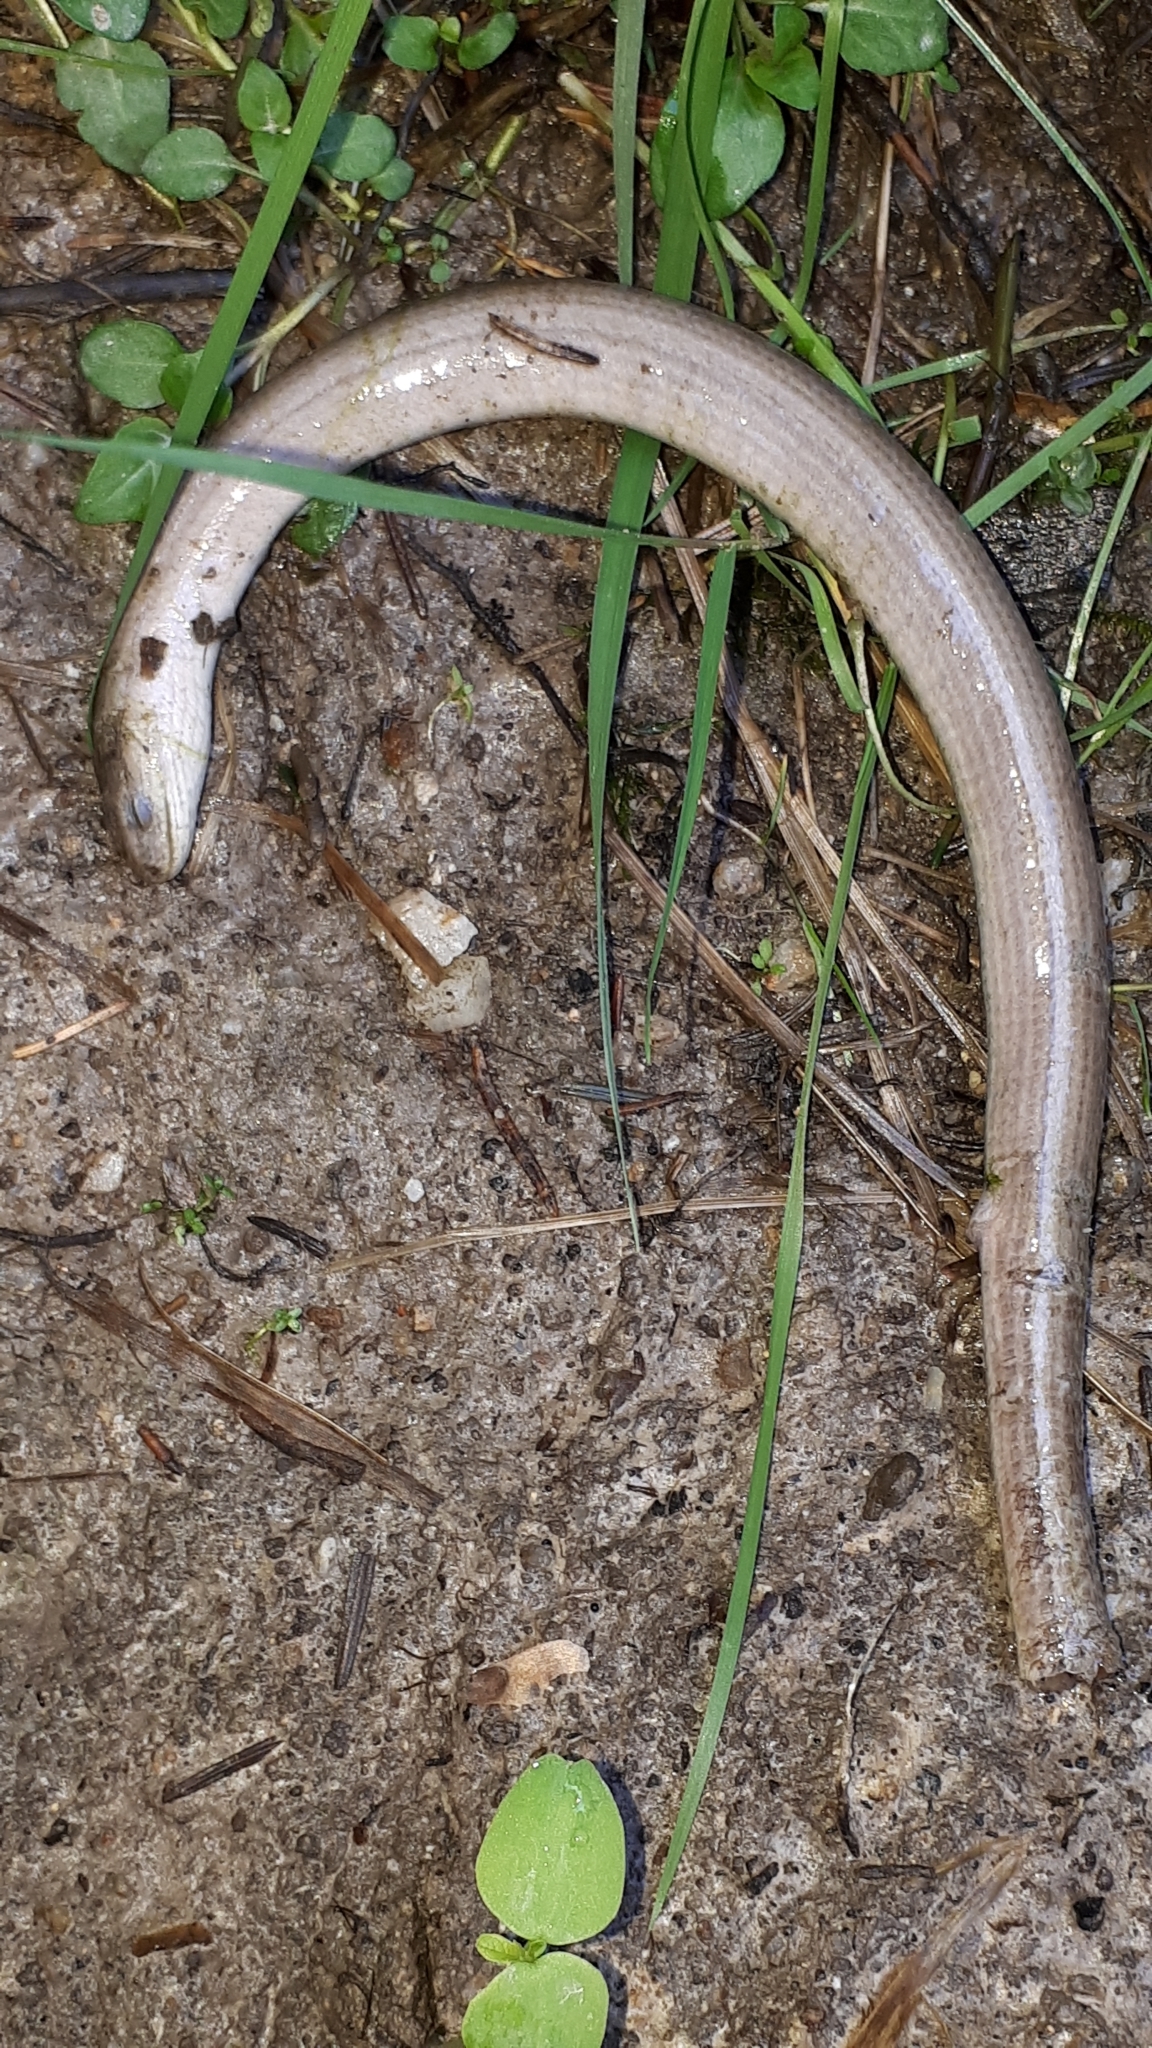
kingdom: Animalia
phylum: Chordata
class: Squamata
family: Anguidae
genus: Anguis
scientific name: Anguis fragilis
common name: Slow worm
